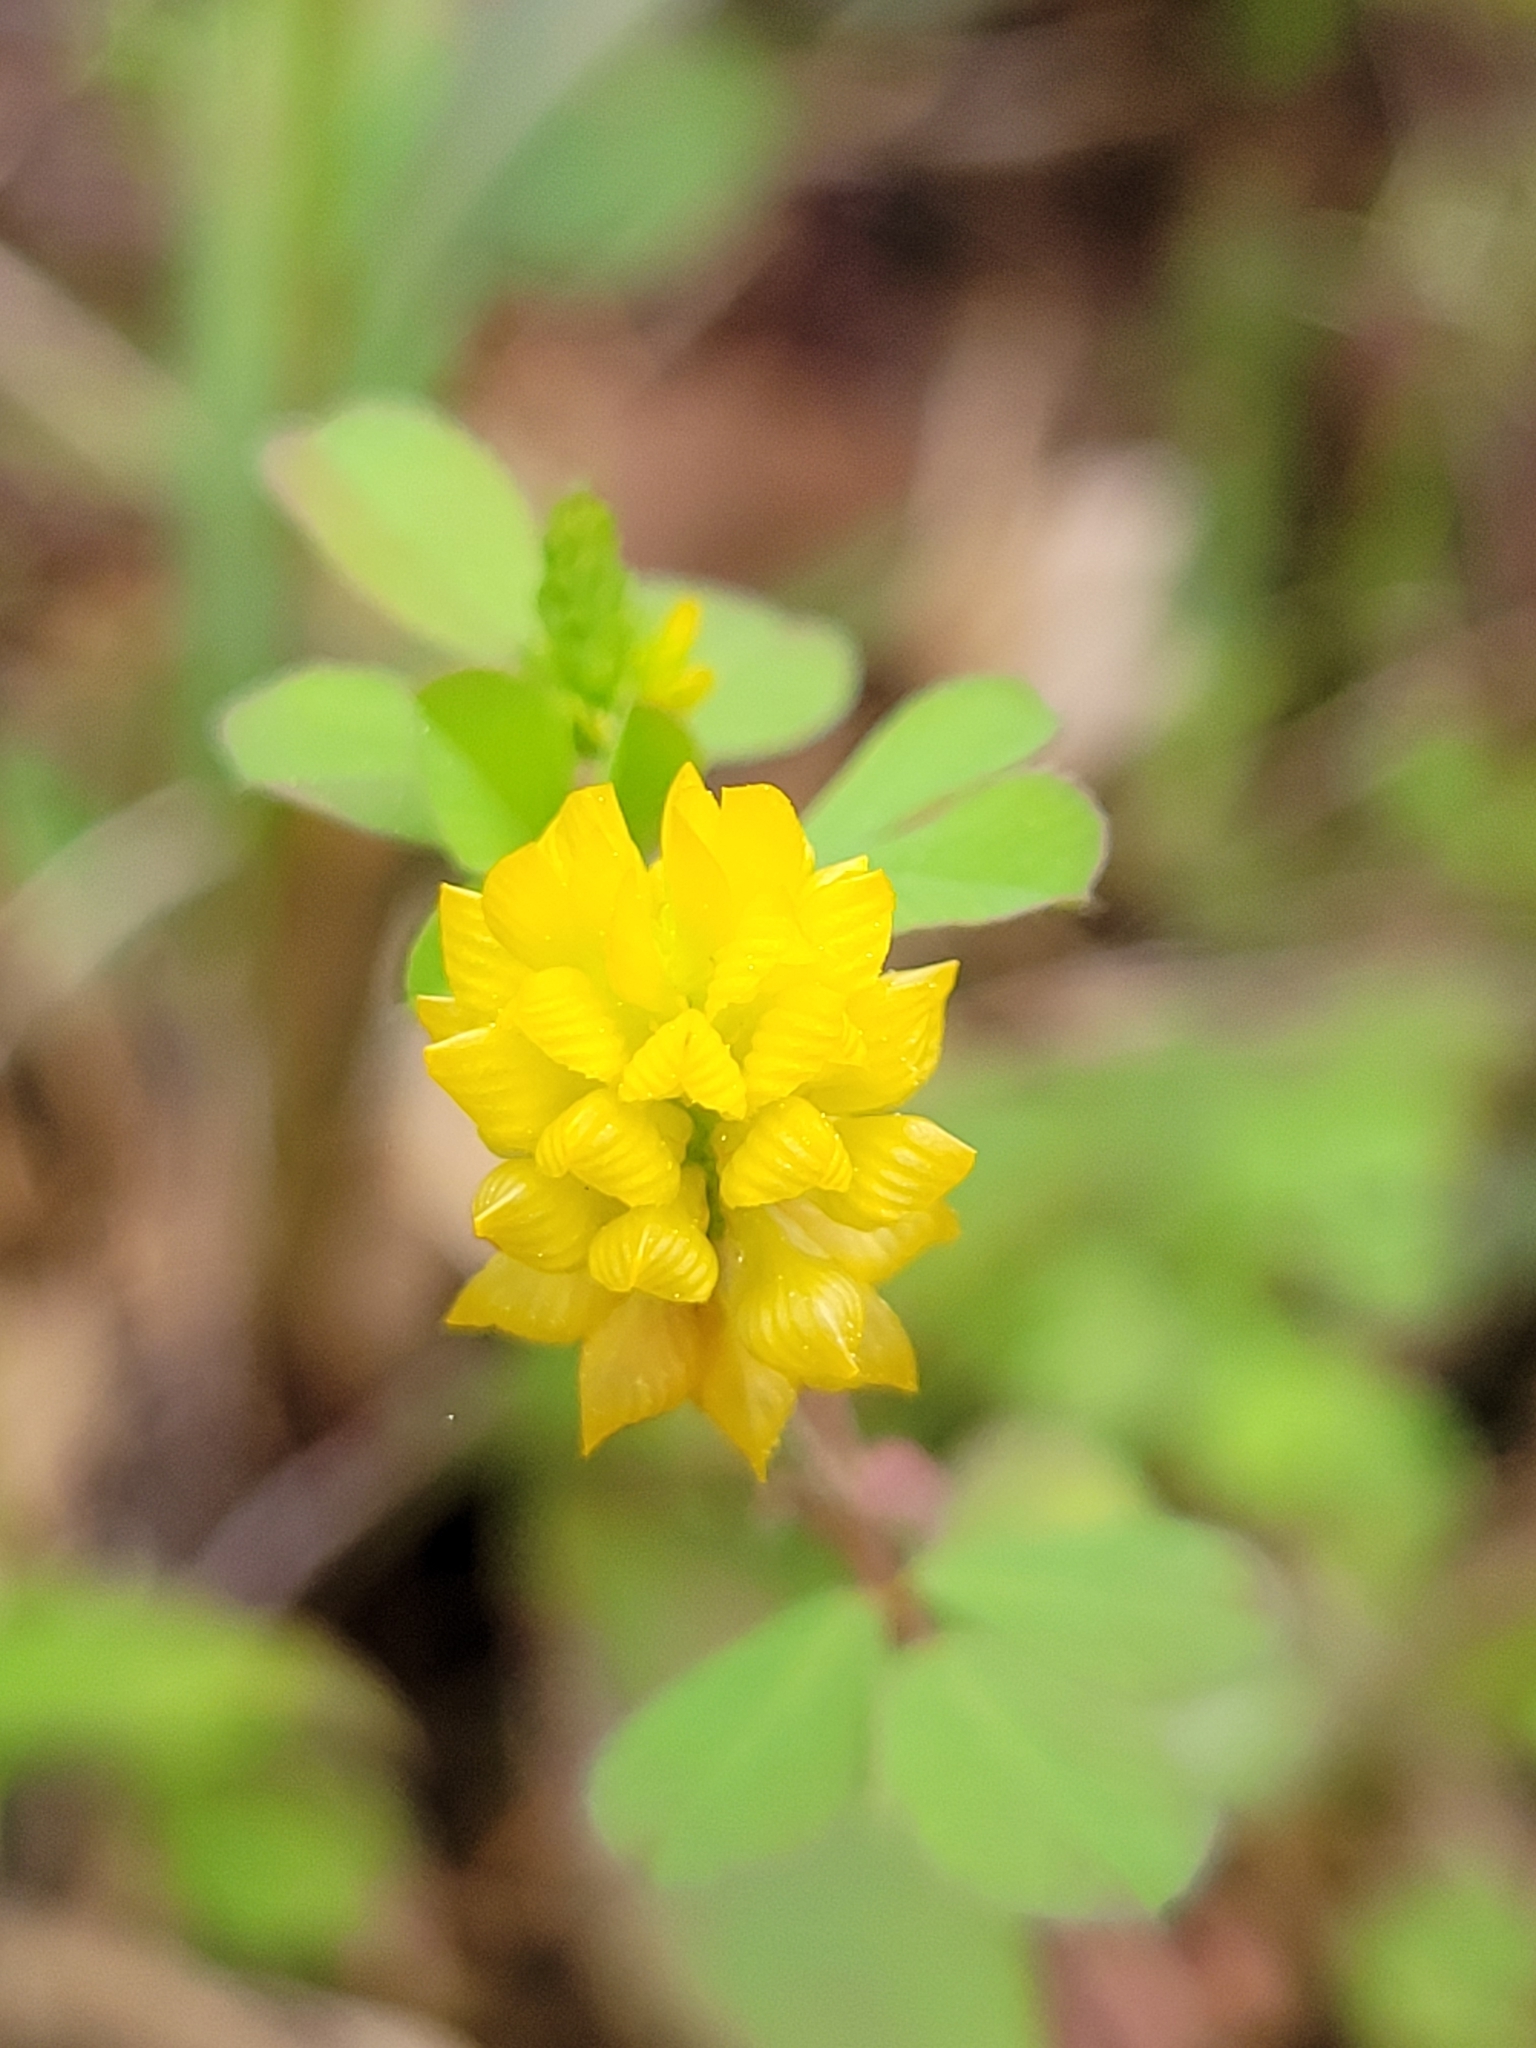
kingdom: Plantae
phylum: Tracheophyta
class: Magnoliopsida
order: Fabales
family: Fabaceae
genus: Trifolium
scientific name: Trifolium campestre
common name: Field clover
